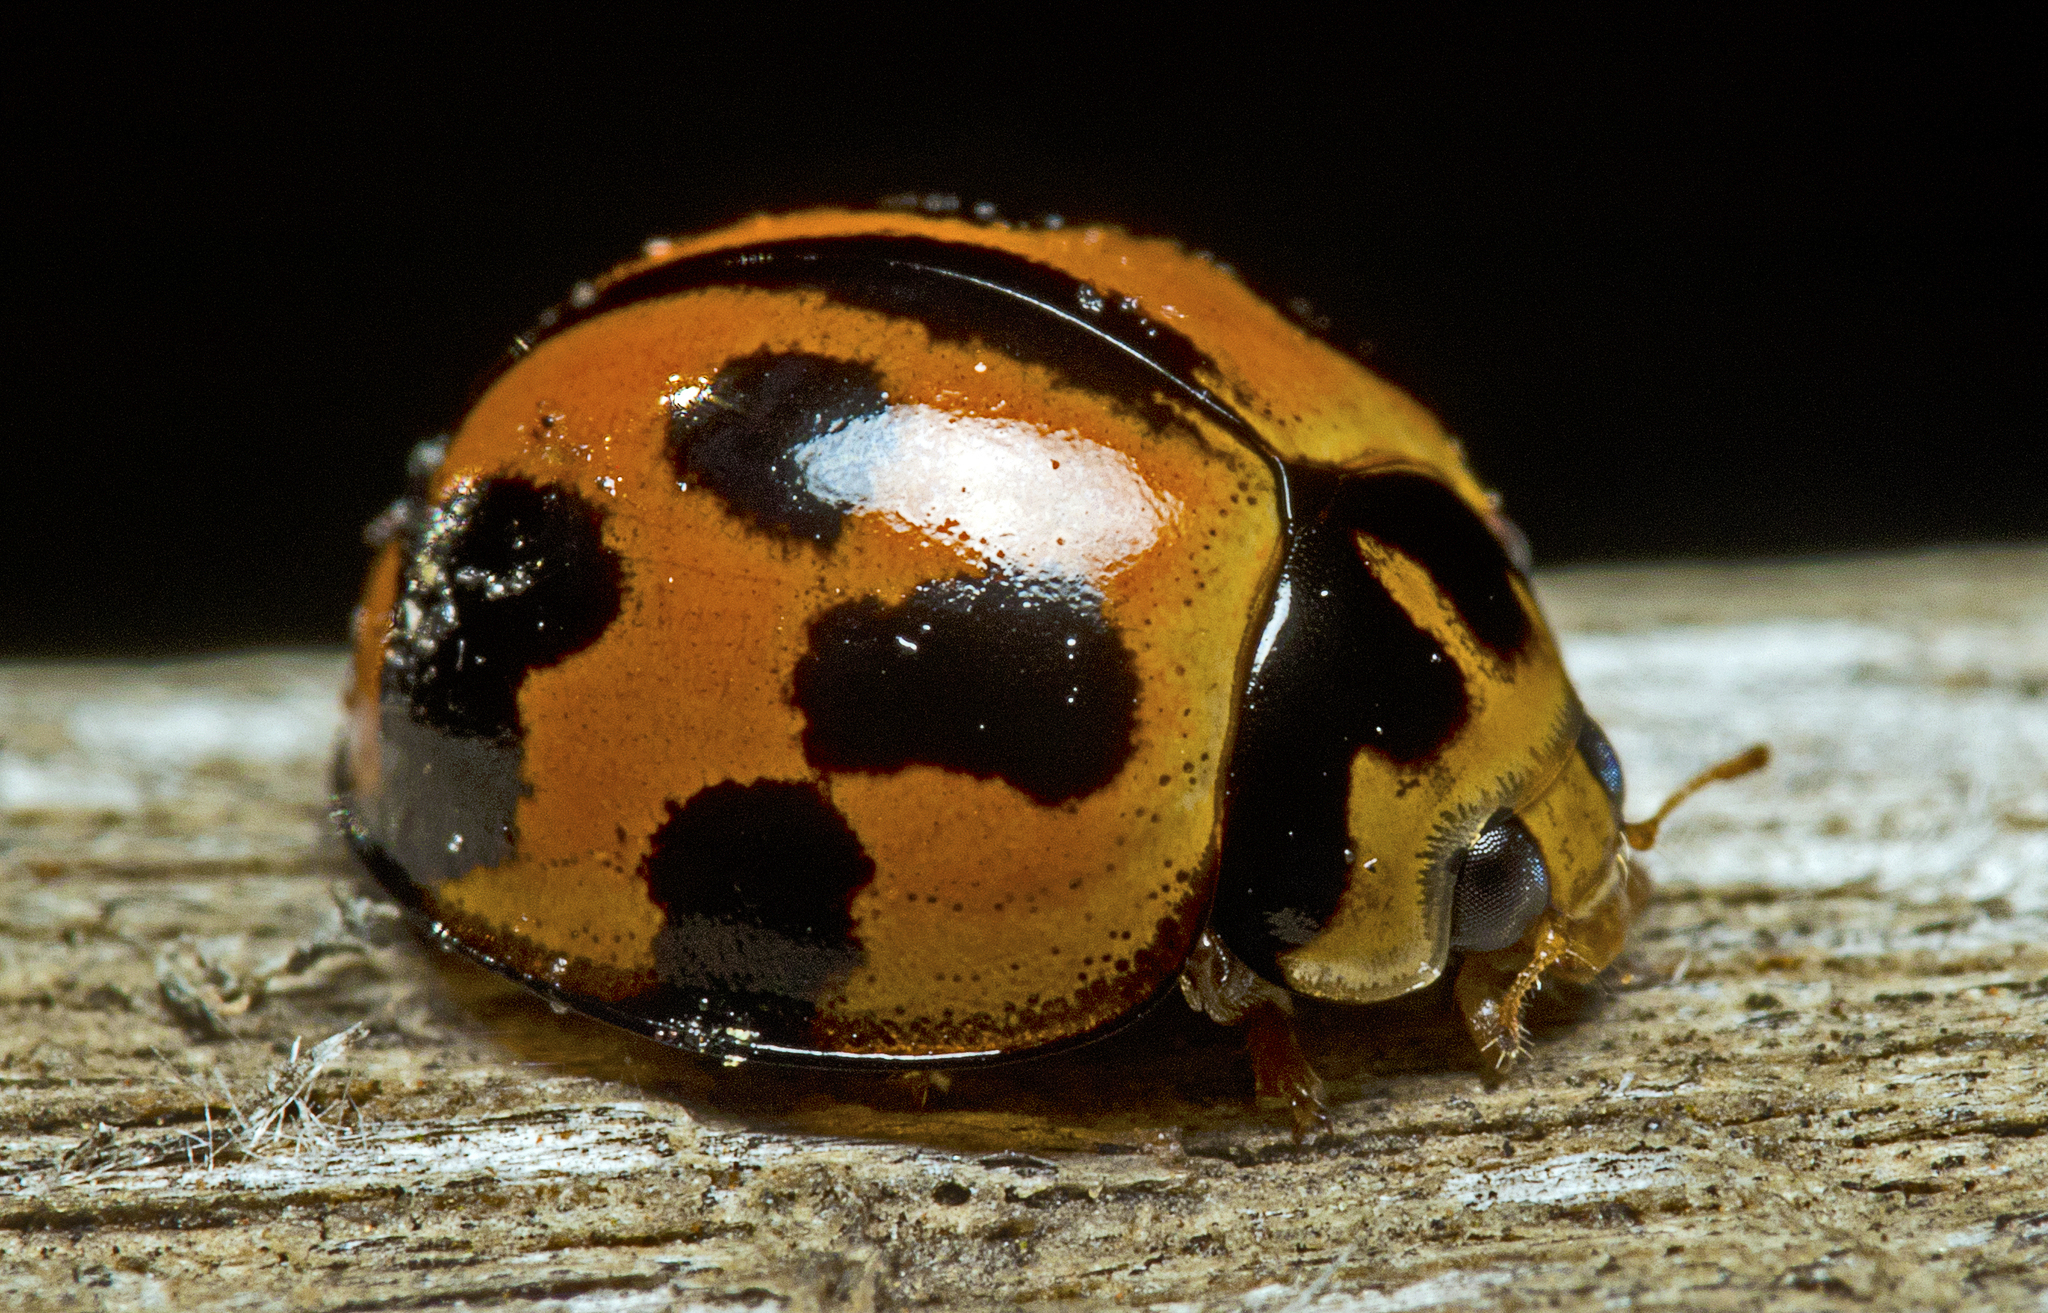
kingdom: Animalia
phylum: Arthropoda
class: Insecta
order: Coleoptera
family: Coccinellidae
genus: Coelophora
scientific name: Coelophora inaequalis
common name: Common australian lady beetle
